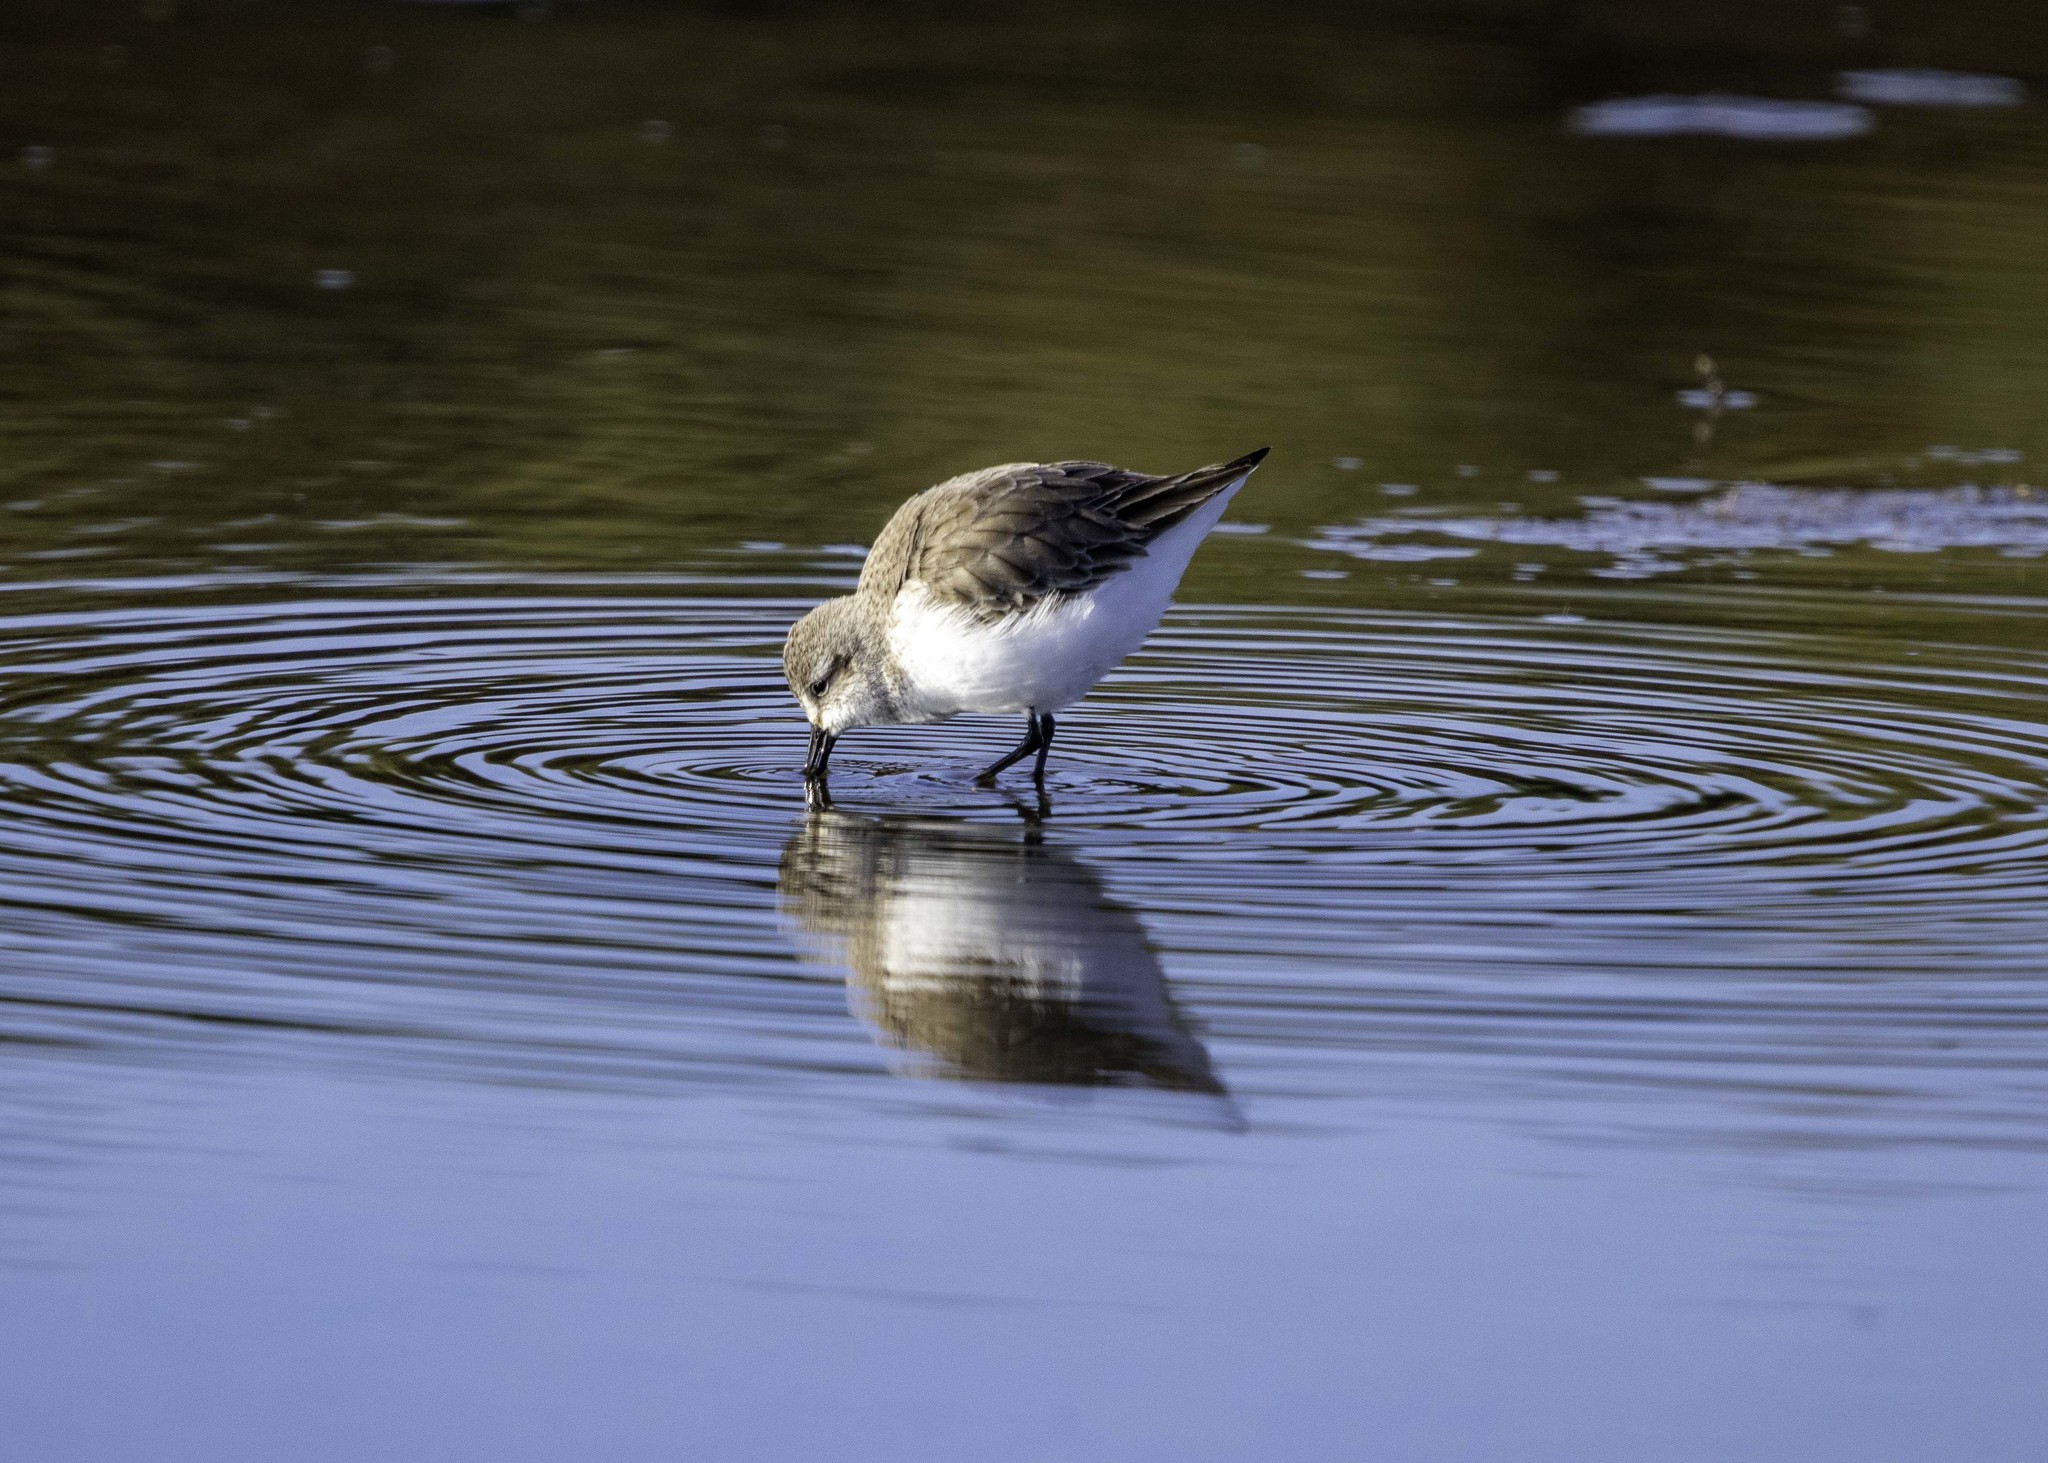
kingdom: Animalia
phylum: Chordata
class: Aves
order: Charadriiformes
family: Scolopacidae
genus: Calidris
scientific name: Calidris mauri
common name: Western sandpiper
